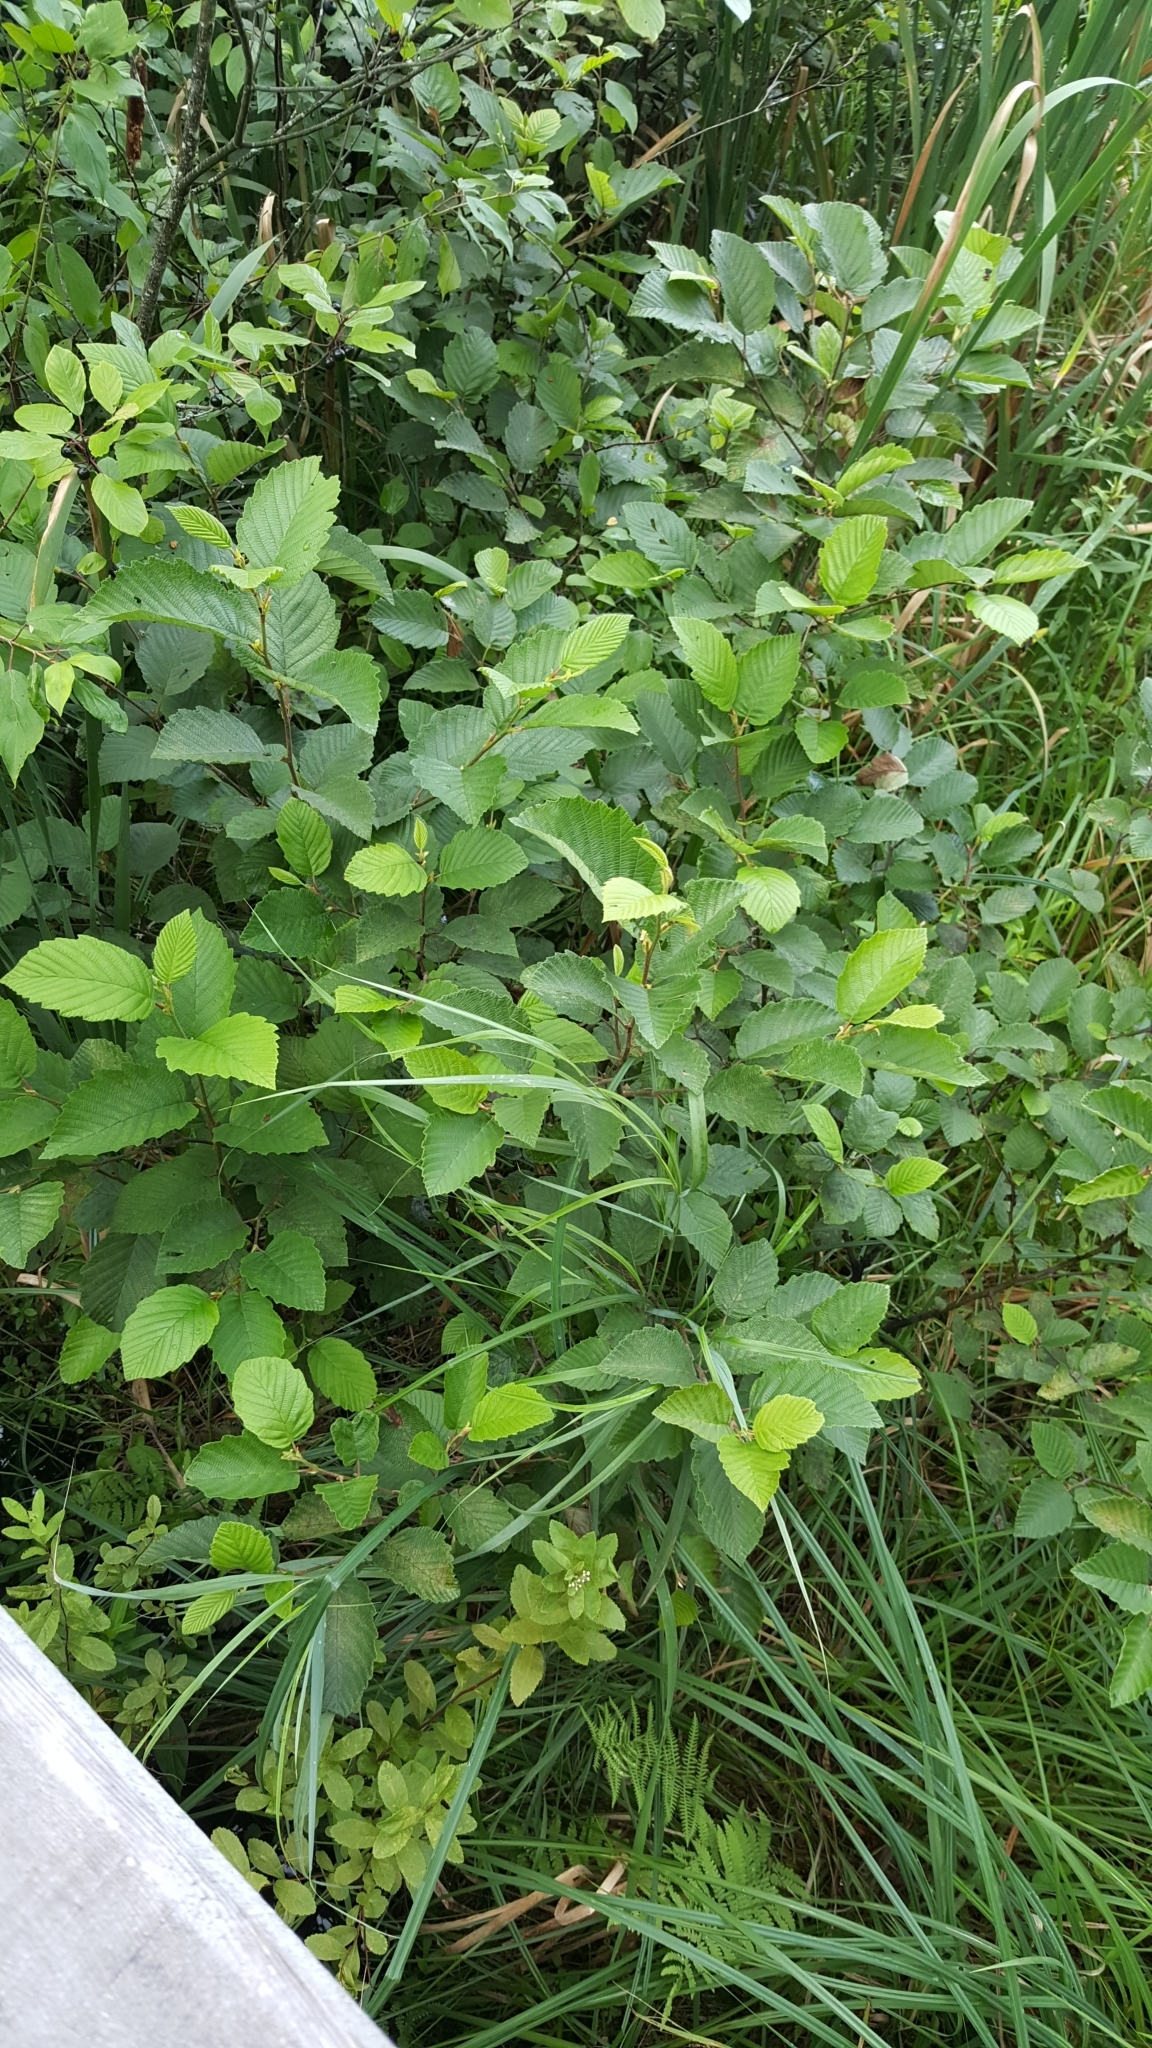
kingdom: Plantae
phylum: Tracheophyta
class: Magnoliopsida
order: Fagales
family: Betulaceae
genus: Alnus
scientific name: Alnus incana
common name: Grey alder
